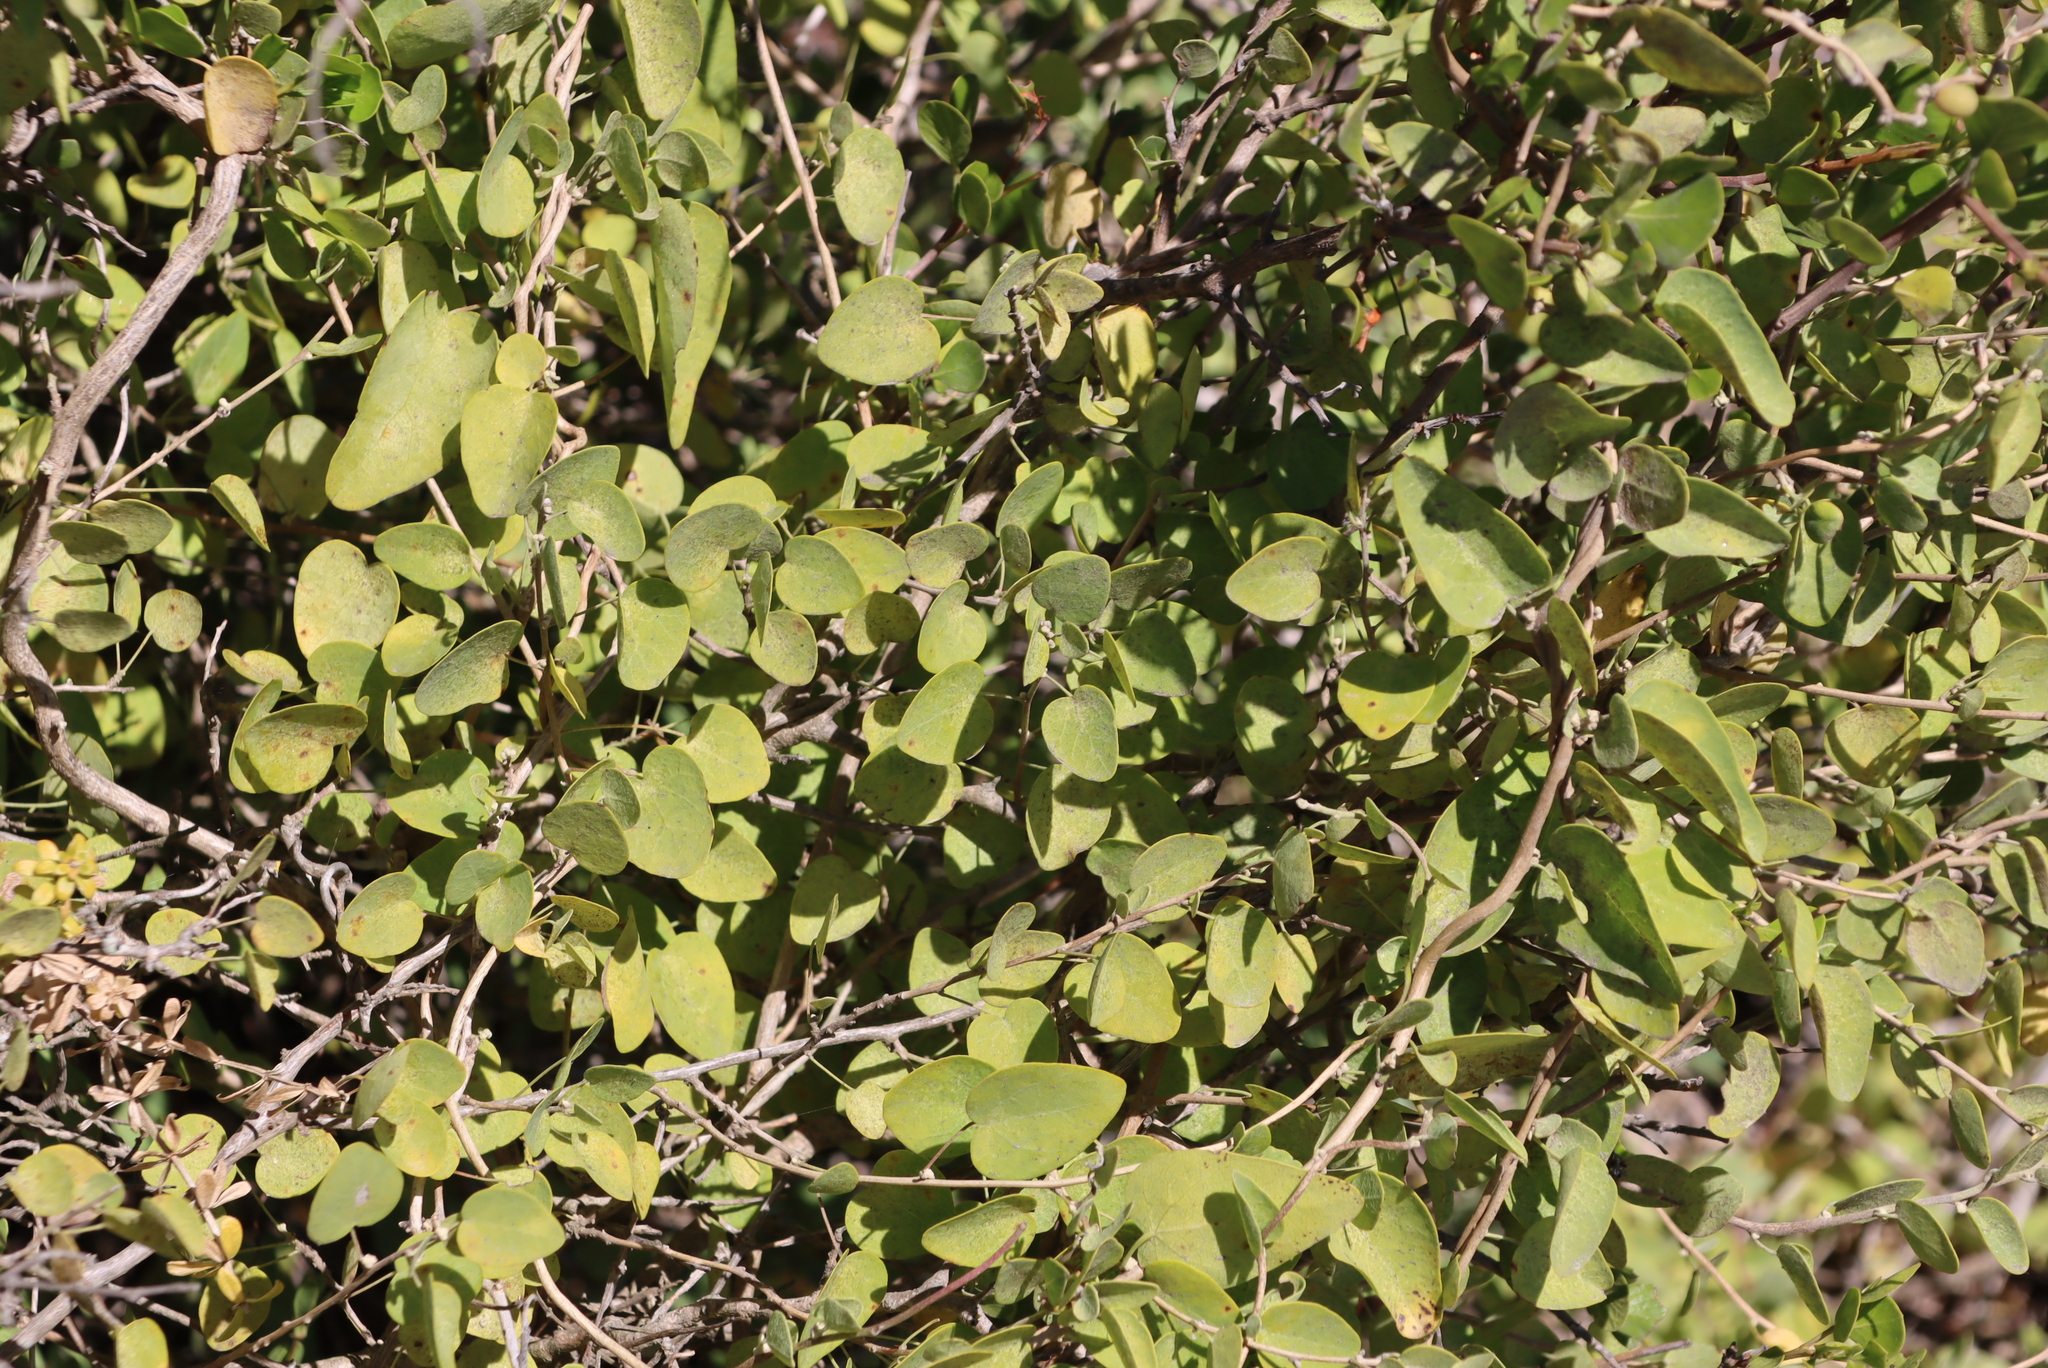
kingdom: Plantae
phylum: Tracheophyta
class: Magnoliopsida
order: Ranunculales
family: Menispermaceae
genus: Cissampelos
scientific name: Cissampelos capensis
